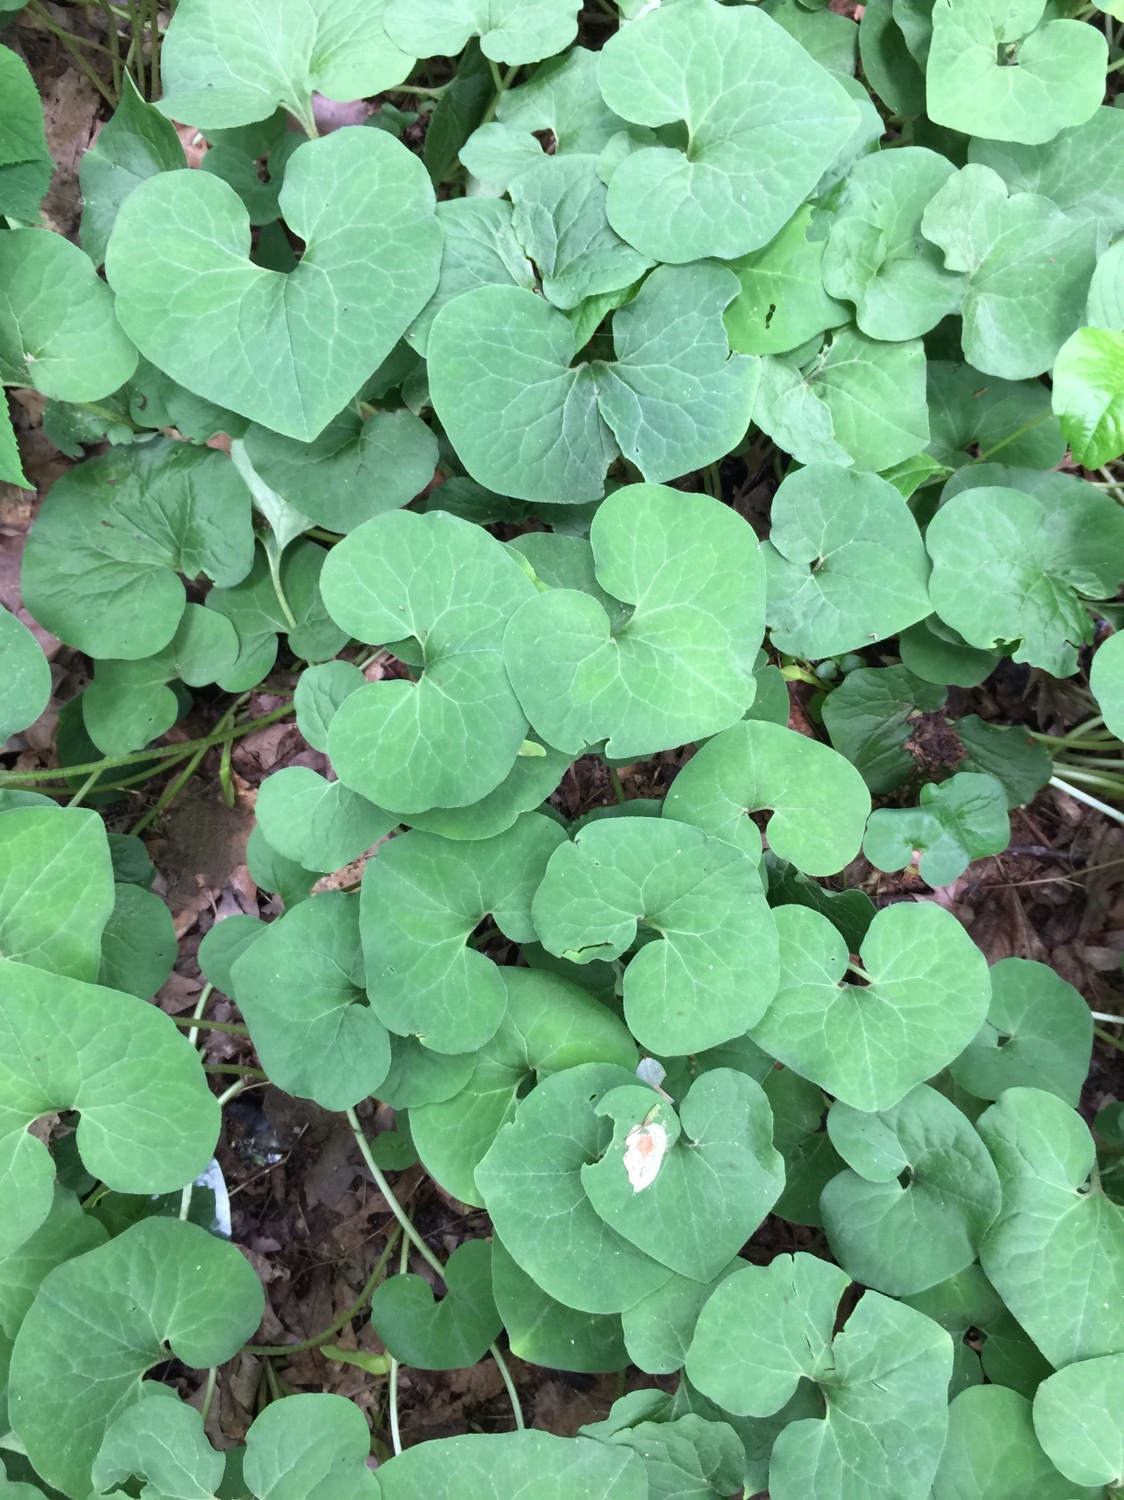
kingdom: Plantae
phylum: Tracheophyta
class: Magnoliopsida
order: Piperales
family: Aristolochiaceae
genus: Asarum
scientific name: Asarum canadense
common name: Wild ginger
